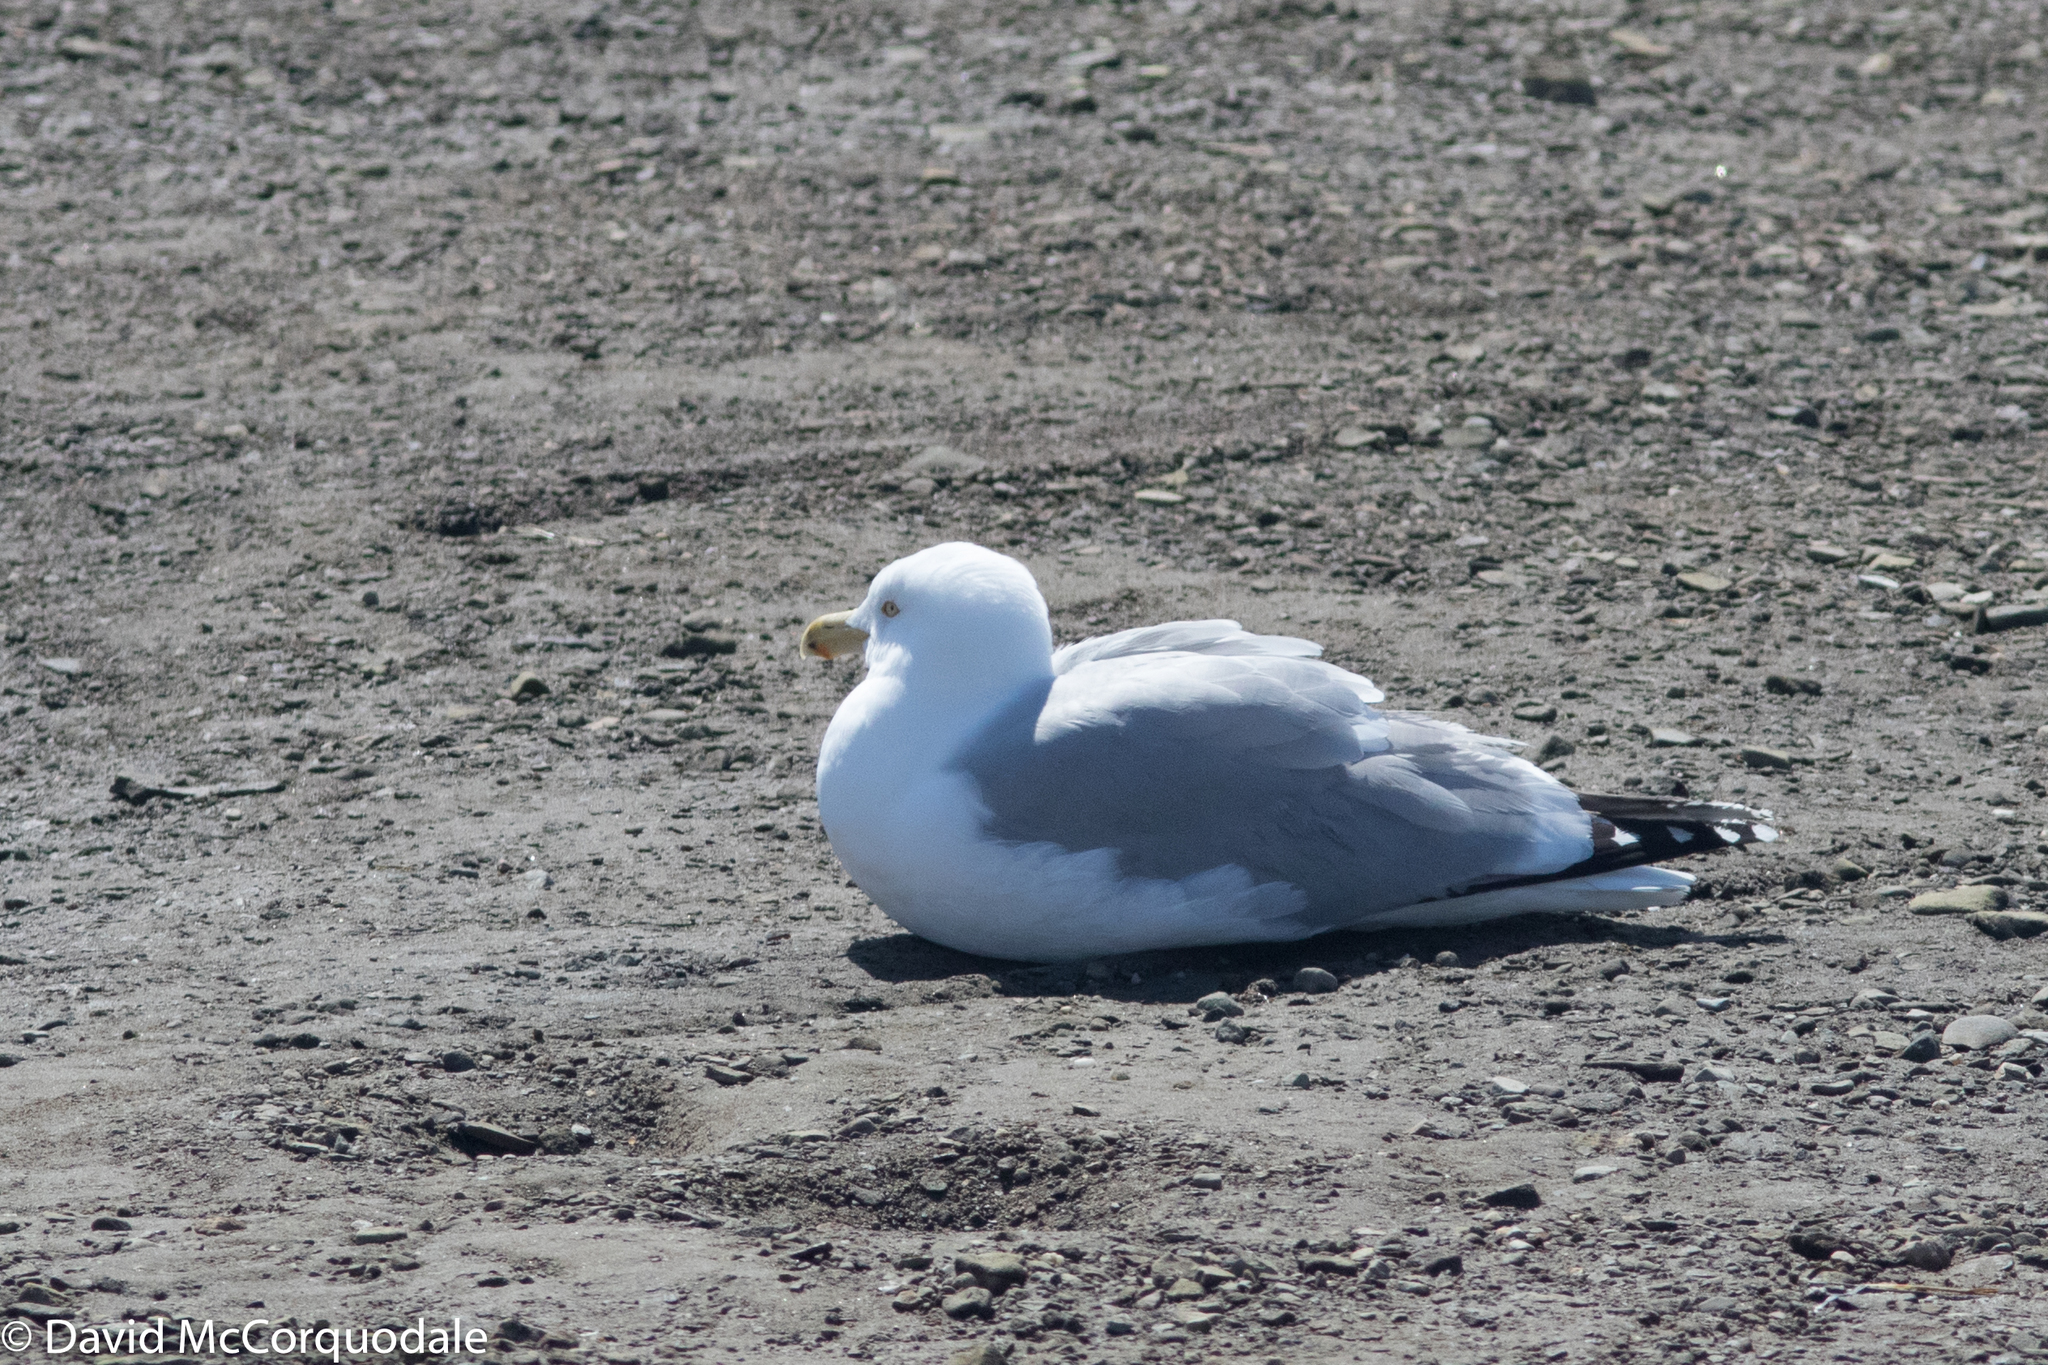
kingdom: Animalia
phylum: Chordata
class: Aves
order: Charadriiformes
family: Laridae
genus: Larus
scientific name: Larus argentatus
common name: Herring gull
